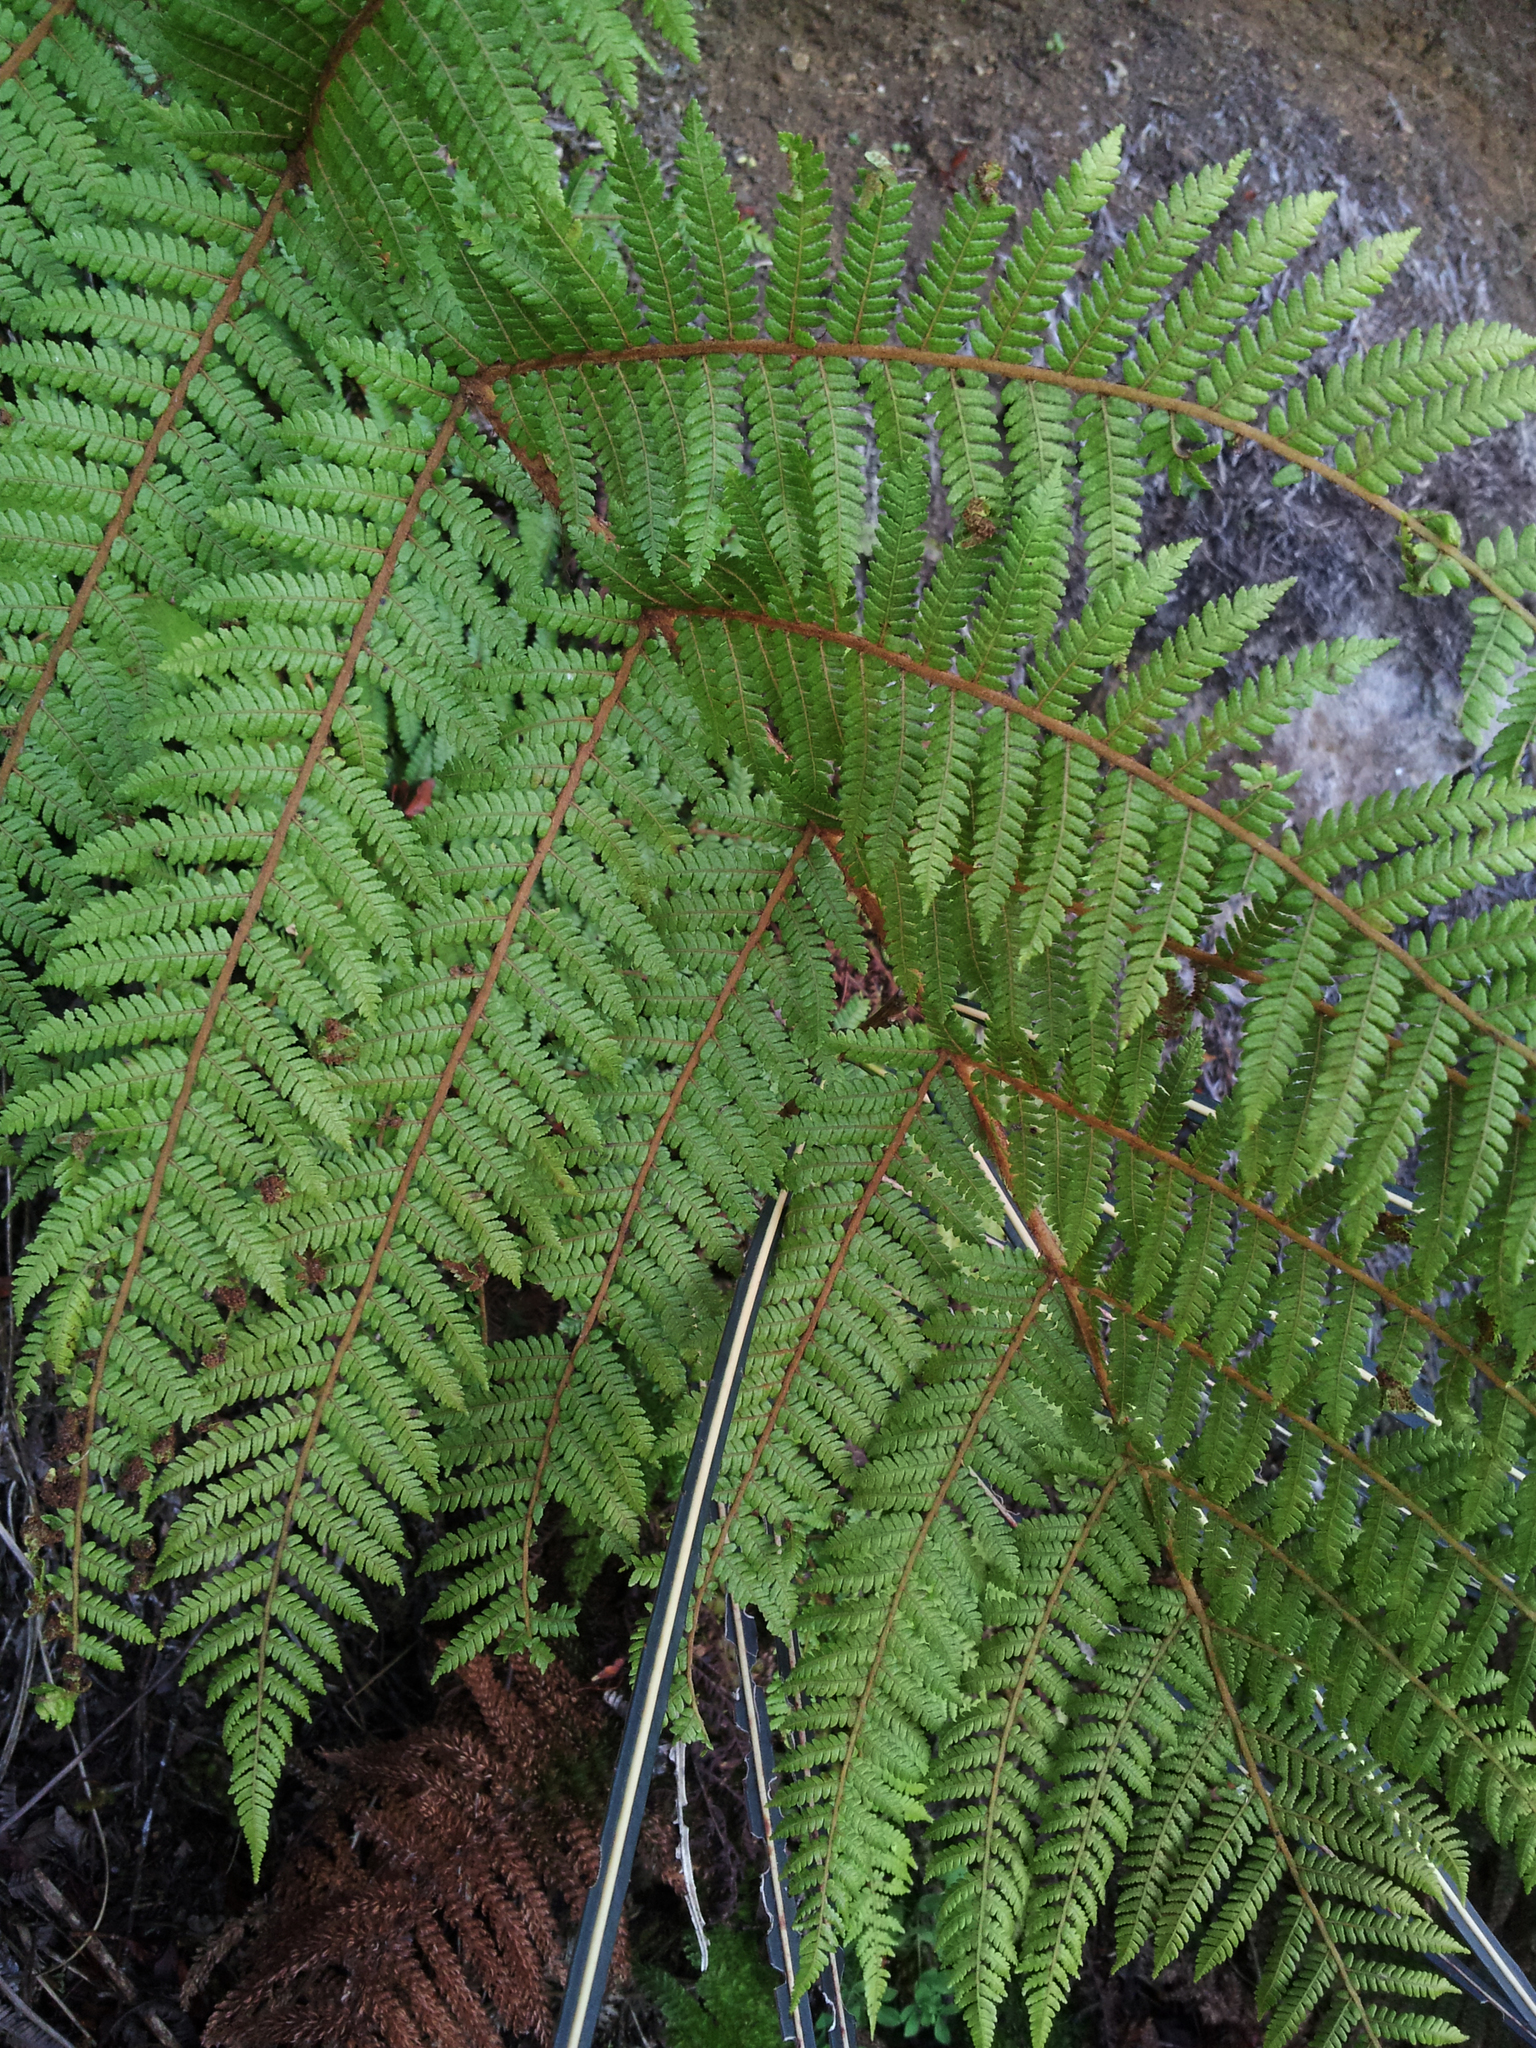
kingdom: Plantae
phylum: Tracheophyta
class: Polypodiopsida
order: Cyatheales
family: Cyatheaceae
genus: Alsophila
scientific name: Alsophila colensoi
